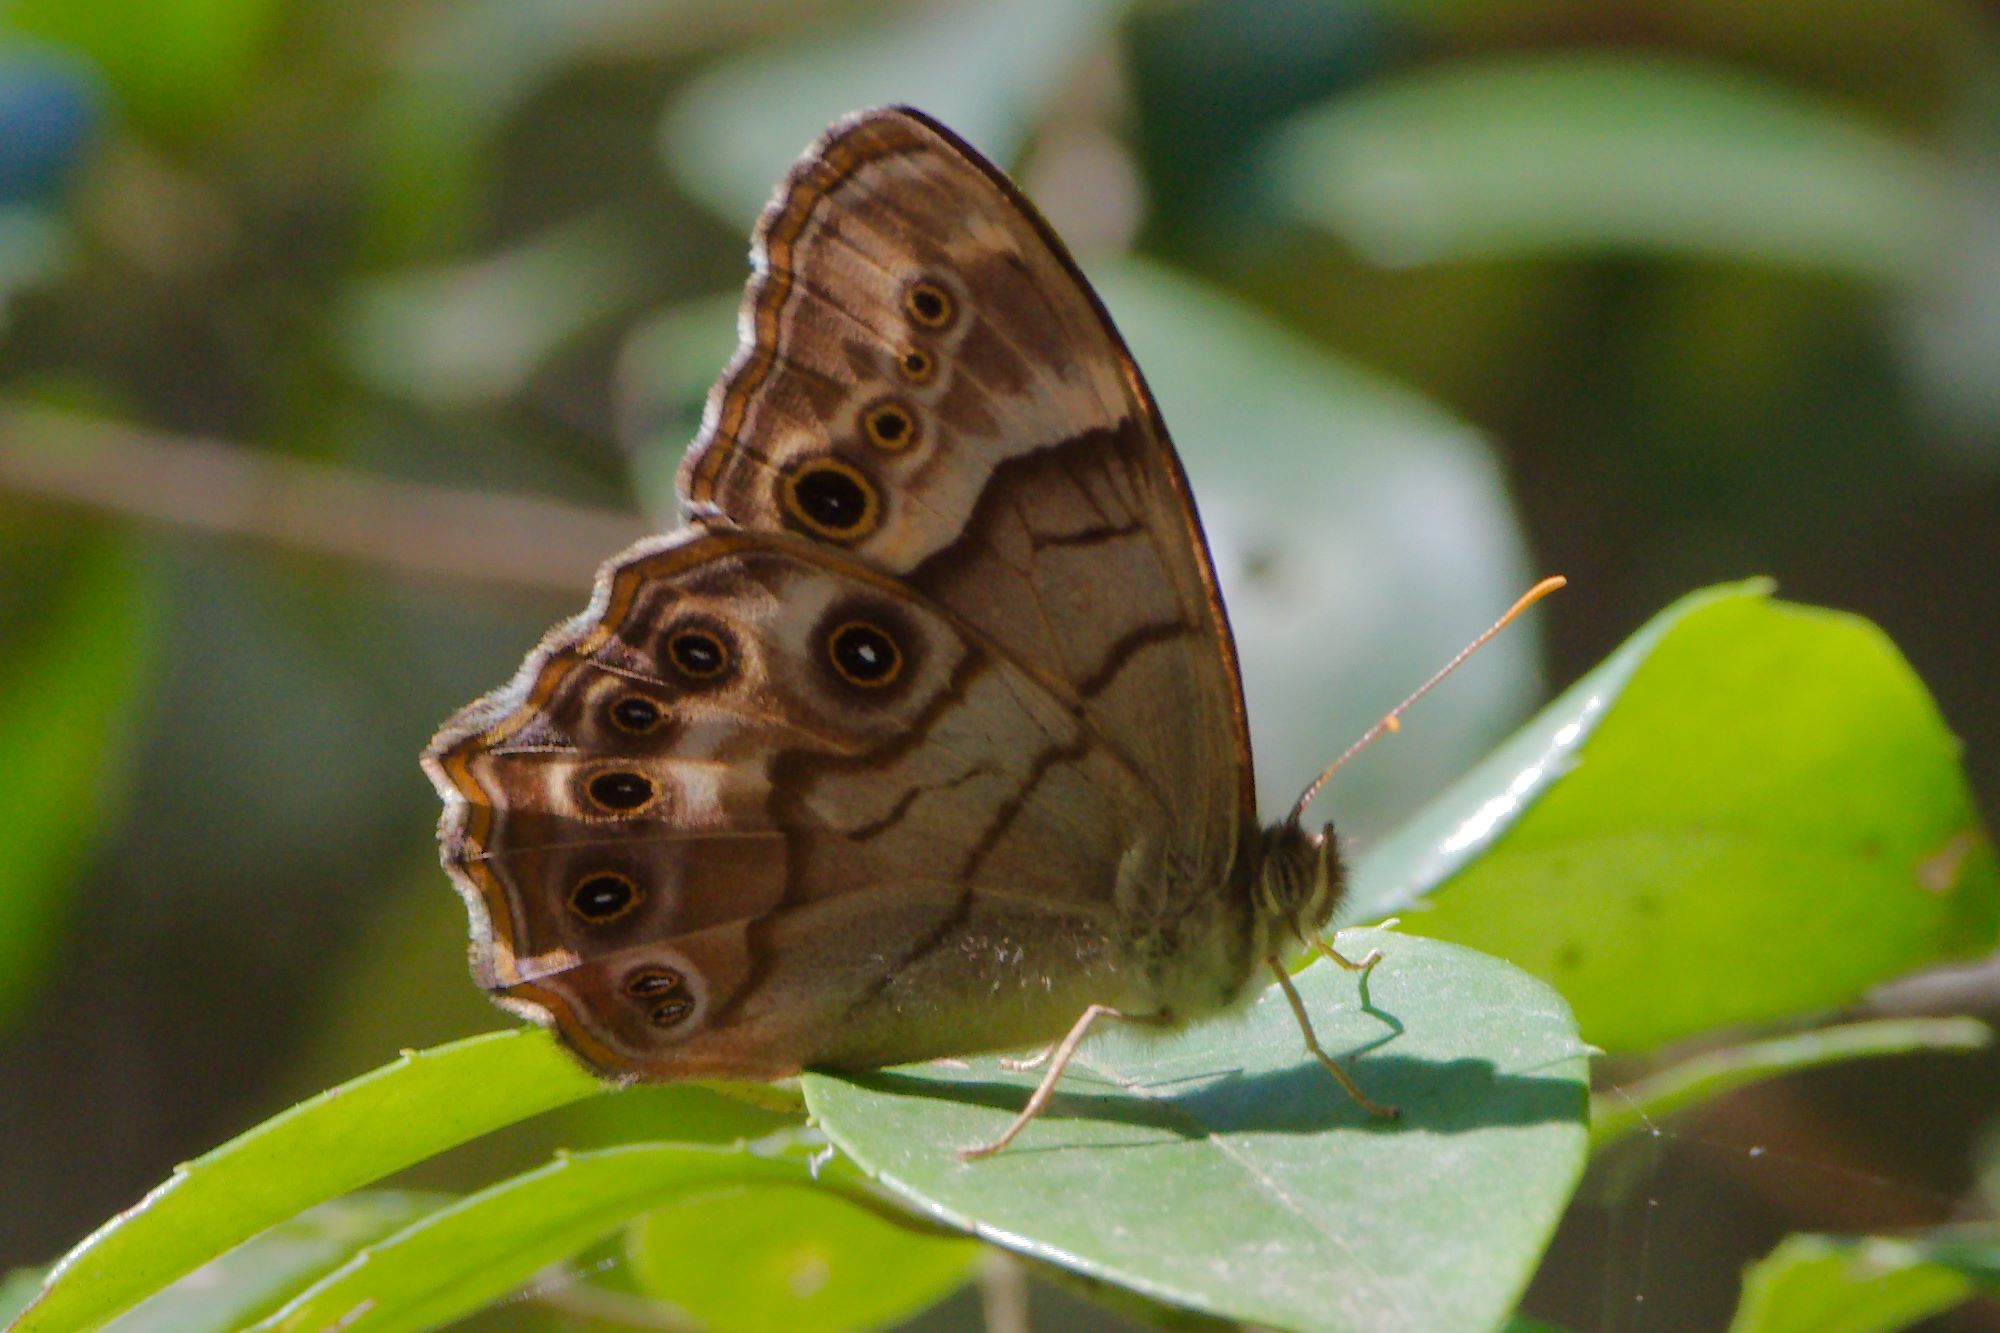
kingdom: Animalia
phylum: Arthropoda
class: Insecta
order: Lepidoptera
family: Nymphalidae
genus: Enodia
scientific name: Enodia portlandia
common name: Southern pearly-eye
